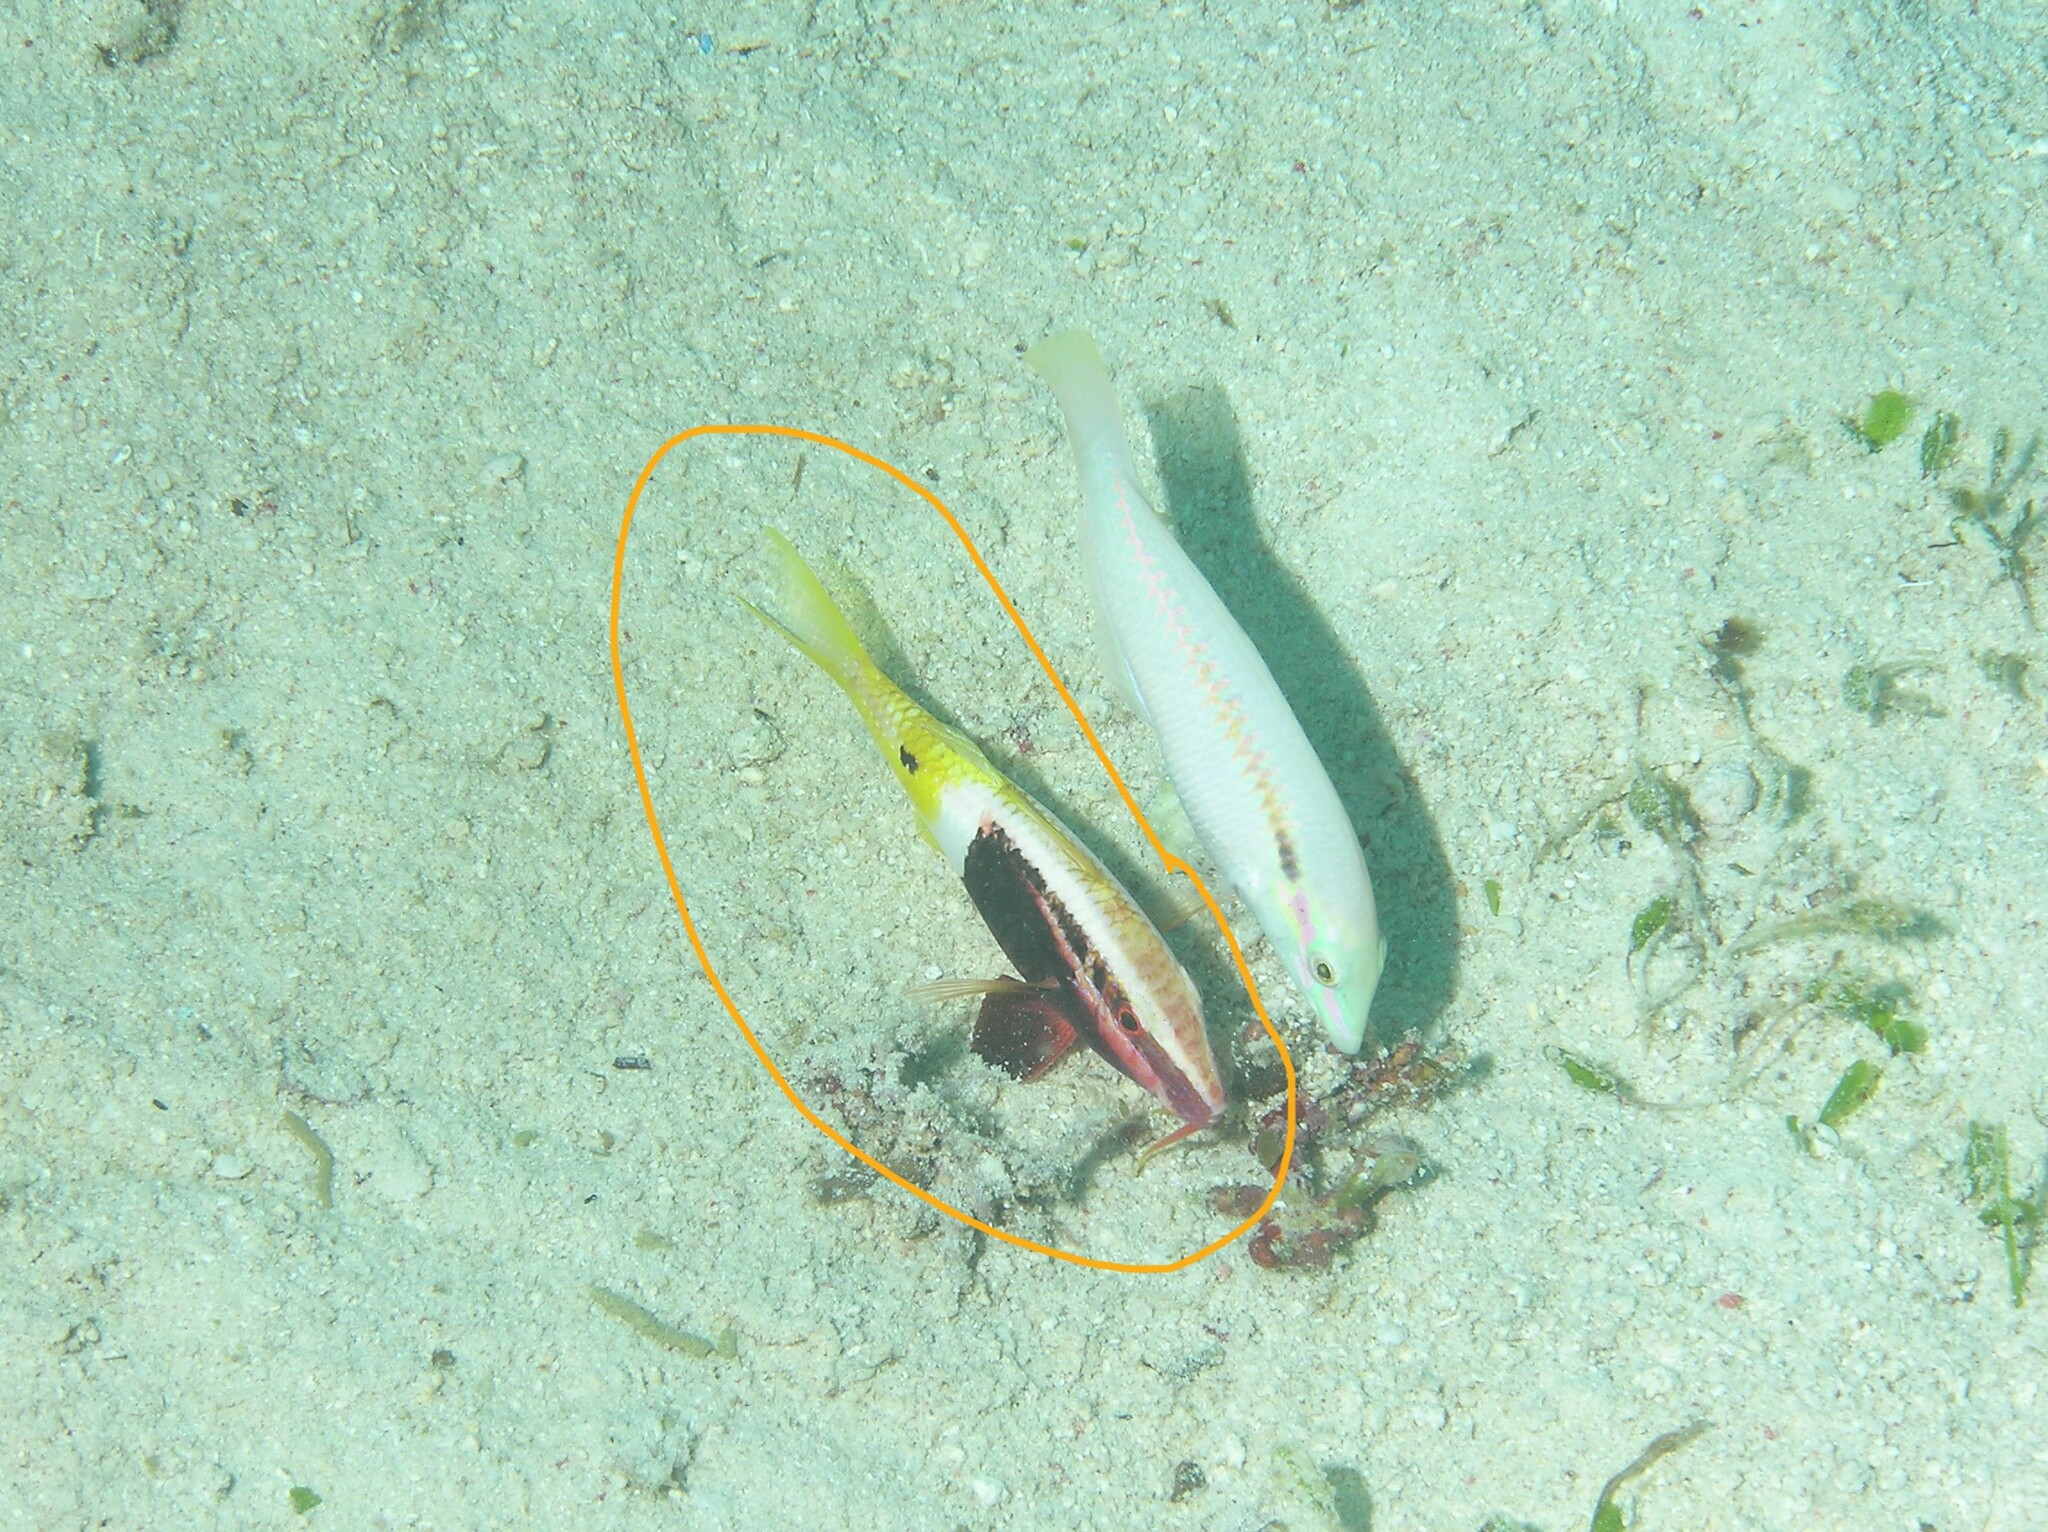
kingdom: Animalia
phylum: Chordata
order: Perciformes
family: Mullidae
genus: Parupeneus
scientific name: Parupeneus barberinoides
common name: Half-and-half goatfish
